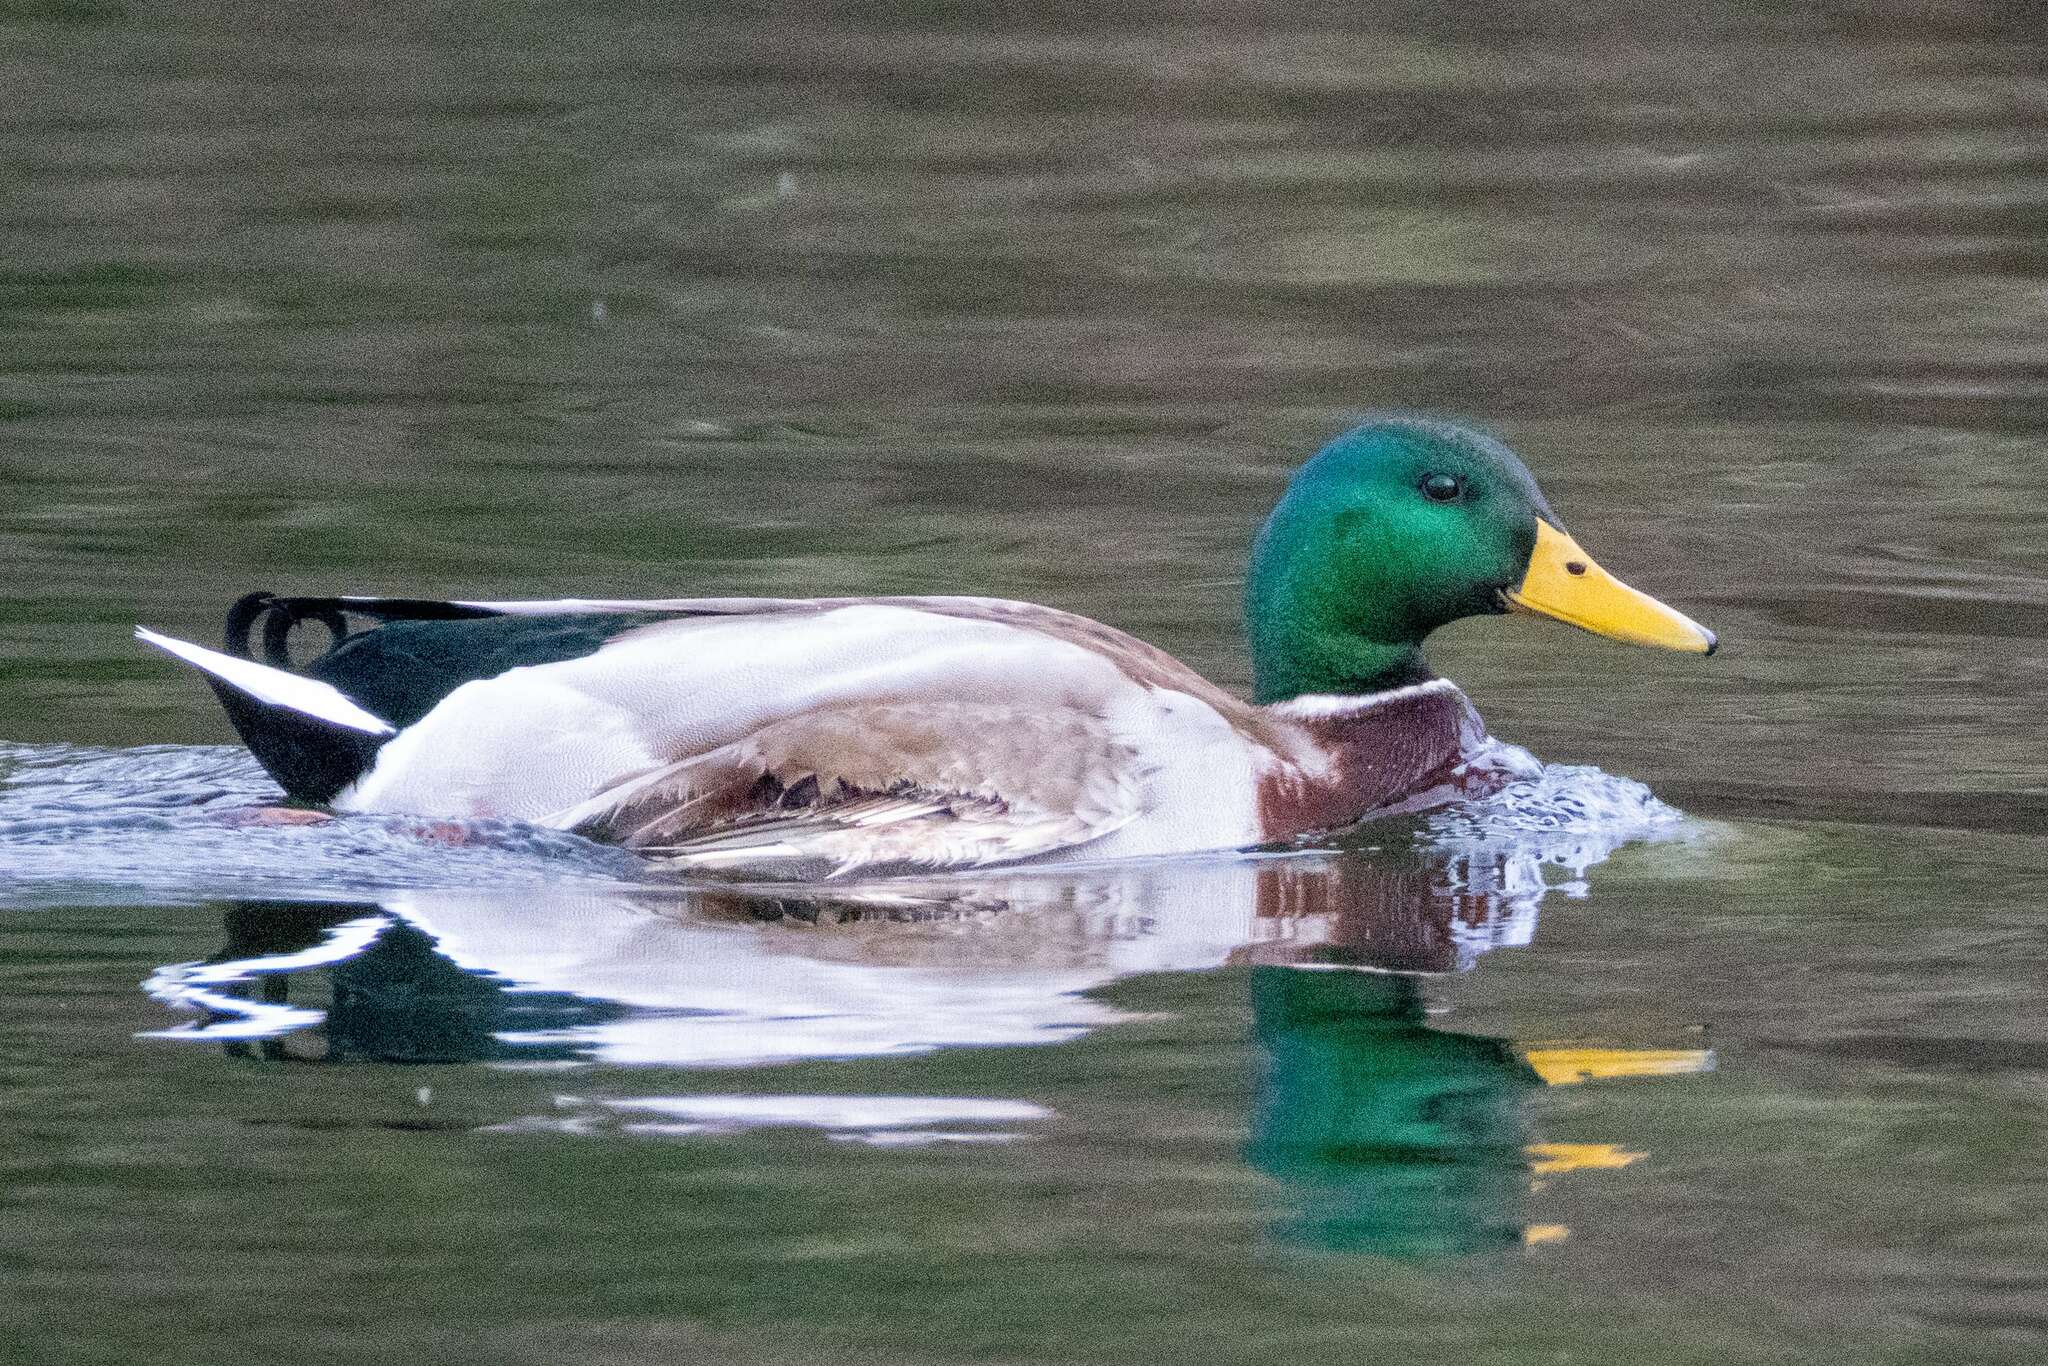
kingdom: Animalia
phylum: Chordata
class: Aves
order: Anseriformes
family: Anatidae
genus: Anas
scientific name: Anas platyrhynchos
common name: Mallard
